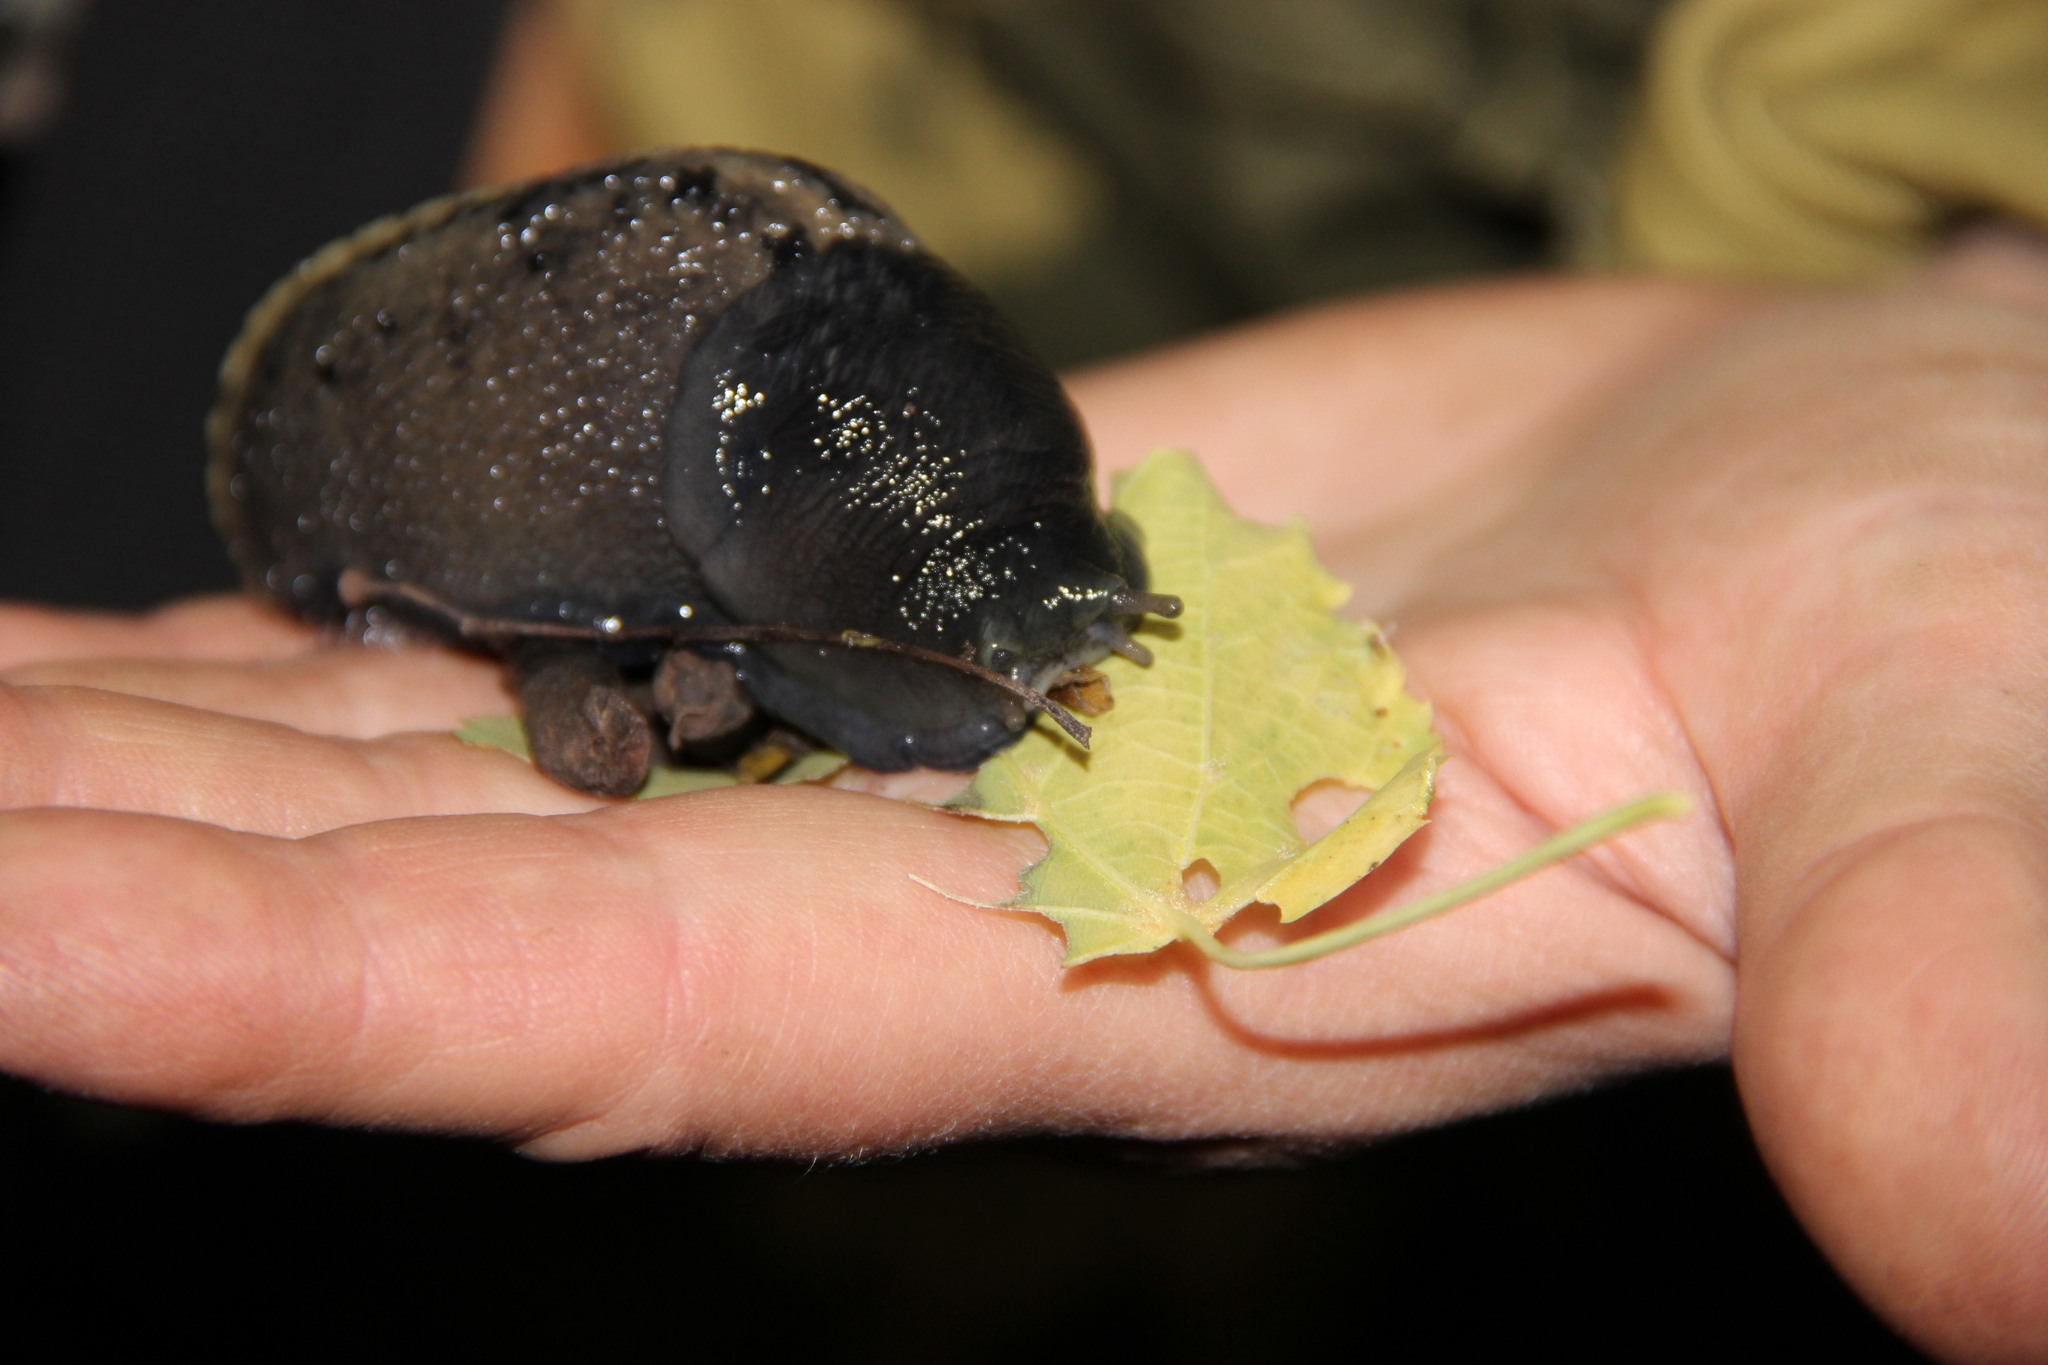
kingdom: Animalia
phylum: Mollusca
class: Gastropoda
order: Stylommatophora
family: Limacidae
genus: Limax
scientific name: Limax cinereoniger
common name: Ash-black slug
